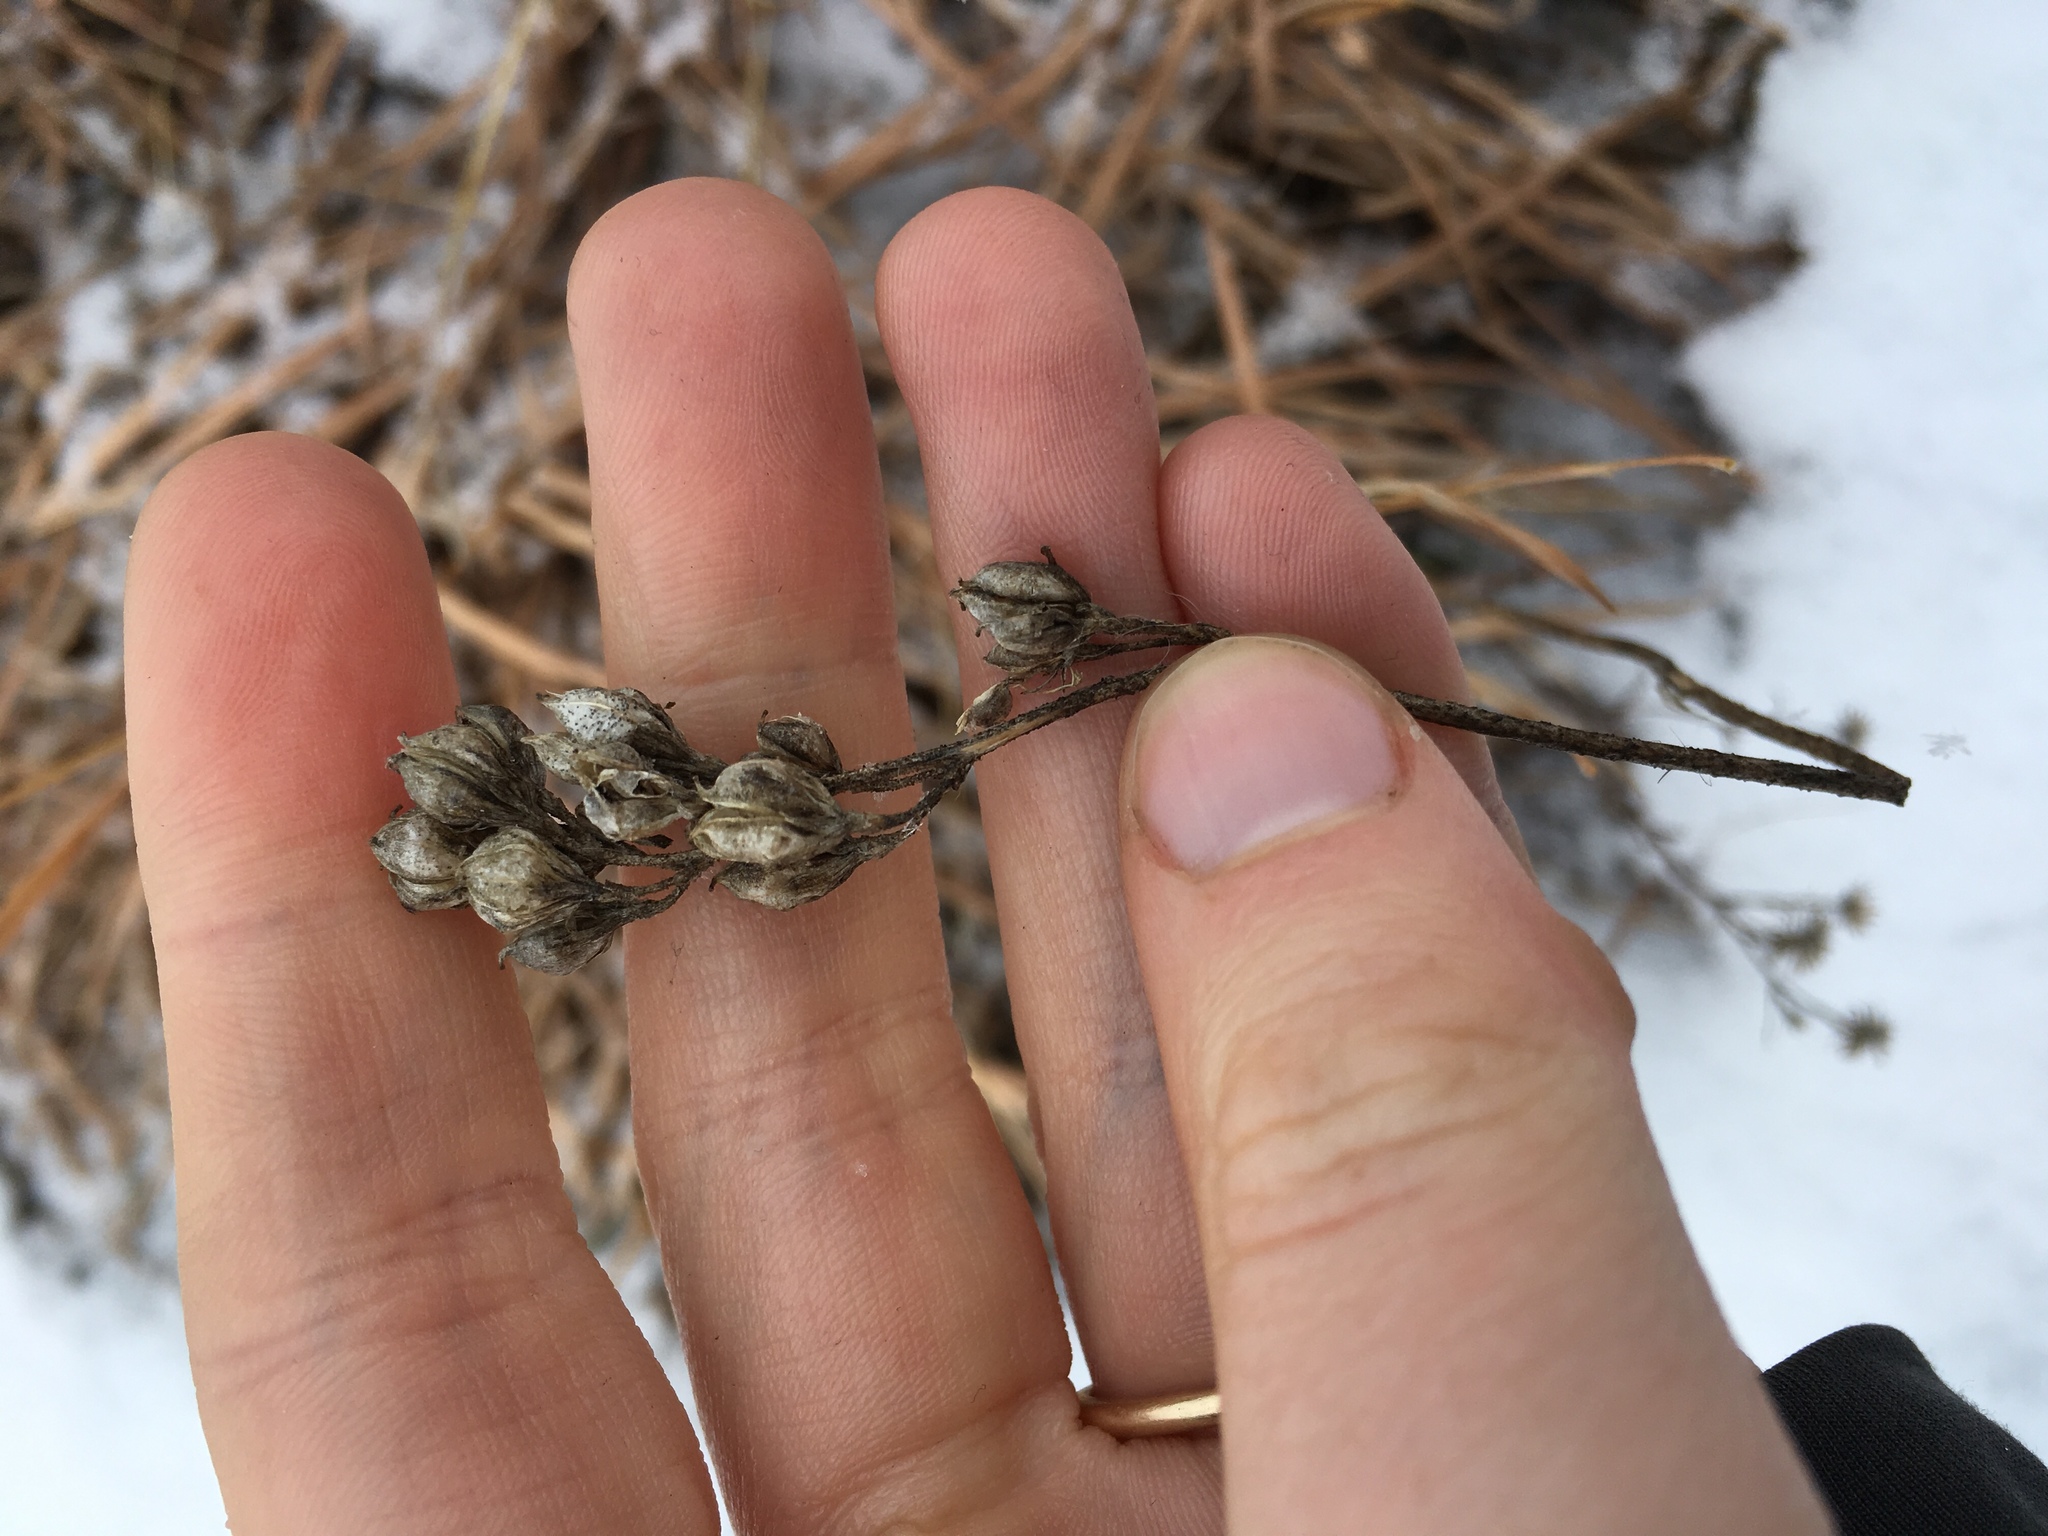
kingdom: Plantae
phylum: Tracheophyta
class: Liliopsida
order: Alismatales
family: Tofieldiaceae
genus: Triantha
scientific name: Triantha glutinosa
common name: Glutinous tofieldia
